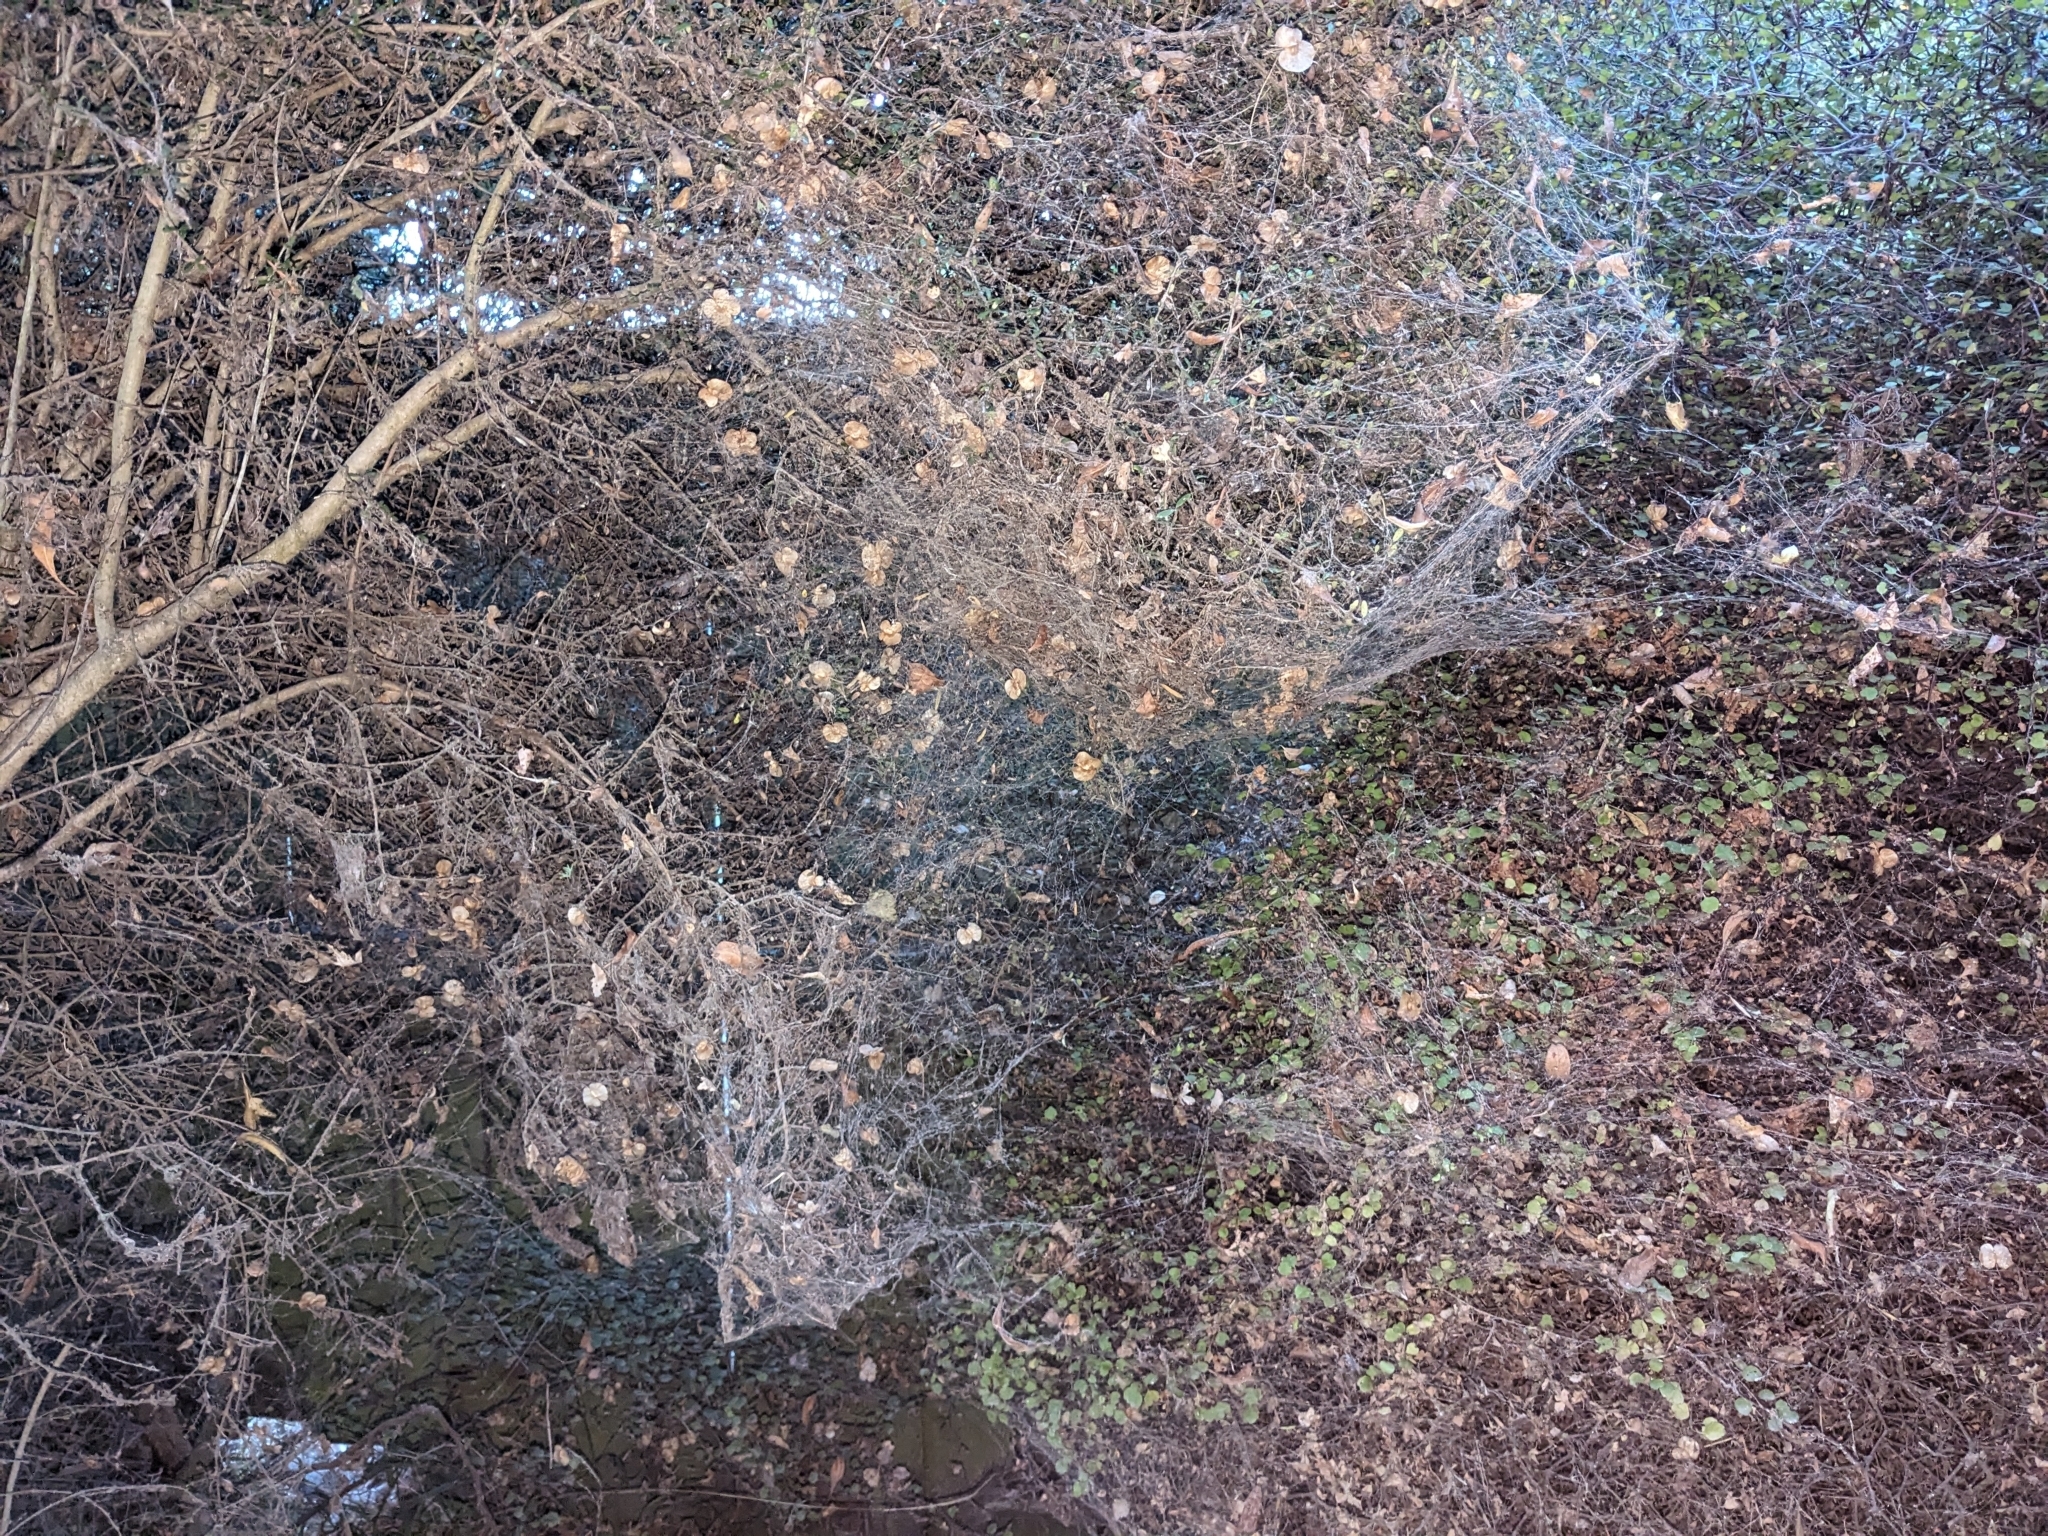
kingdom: Animalia
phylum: Arthropoda
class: Arachnida
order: Araneae
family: Uloboridae
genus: Philoponella
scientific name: Philoponella congregabilis
